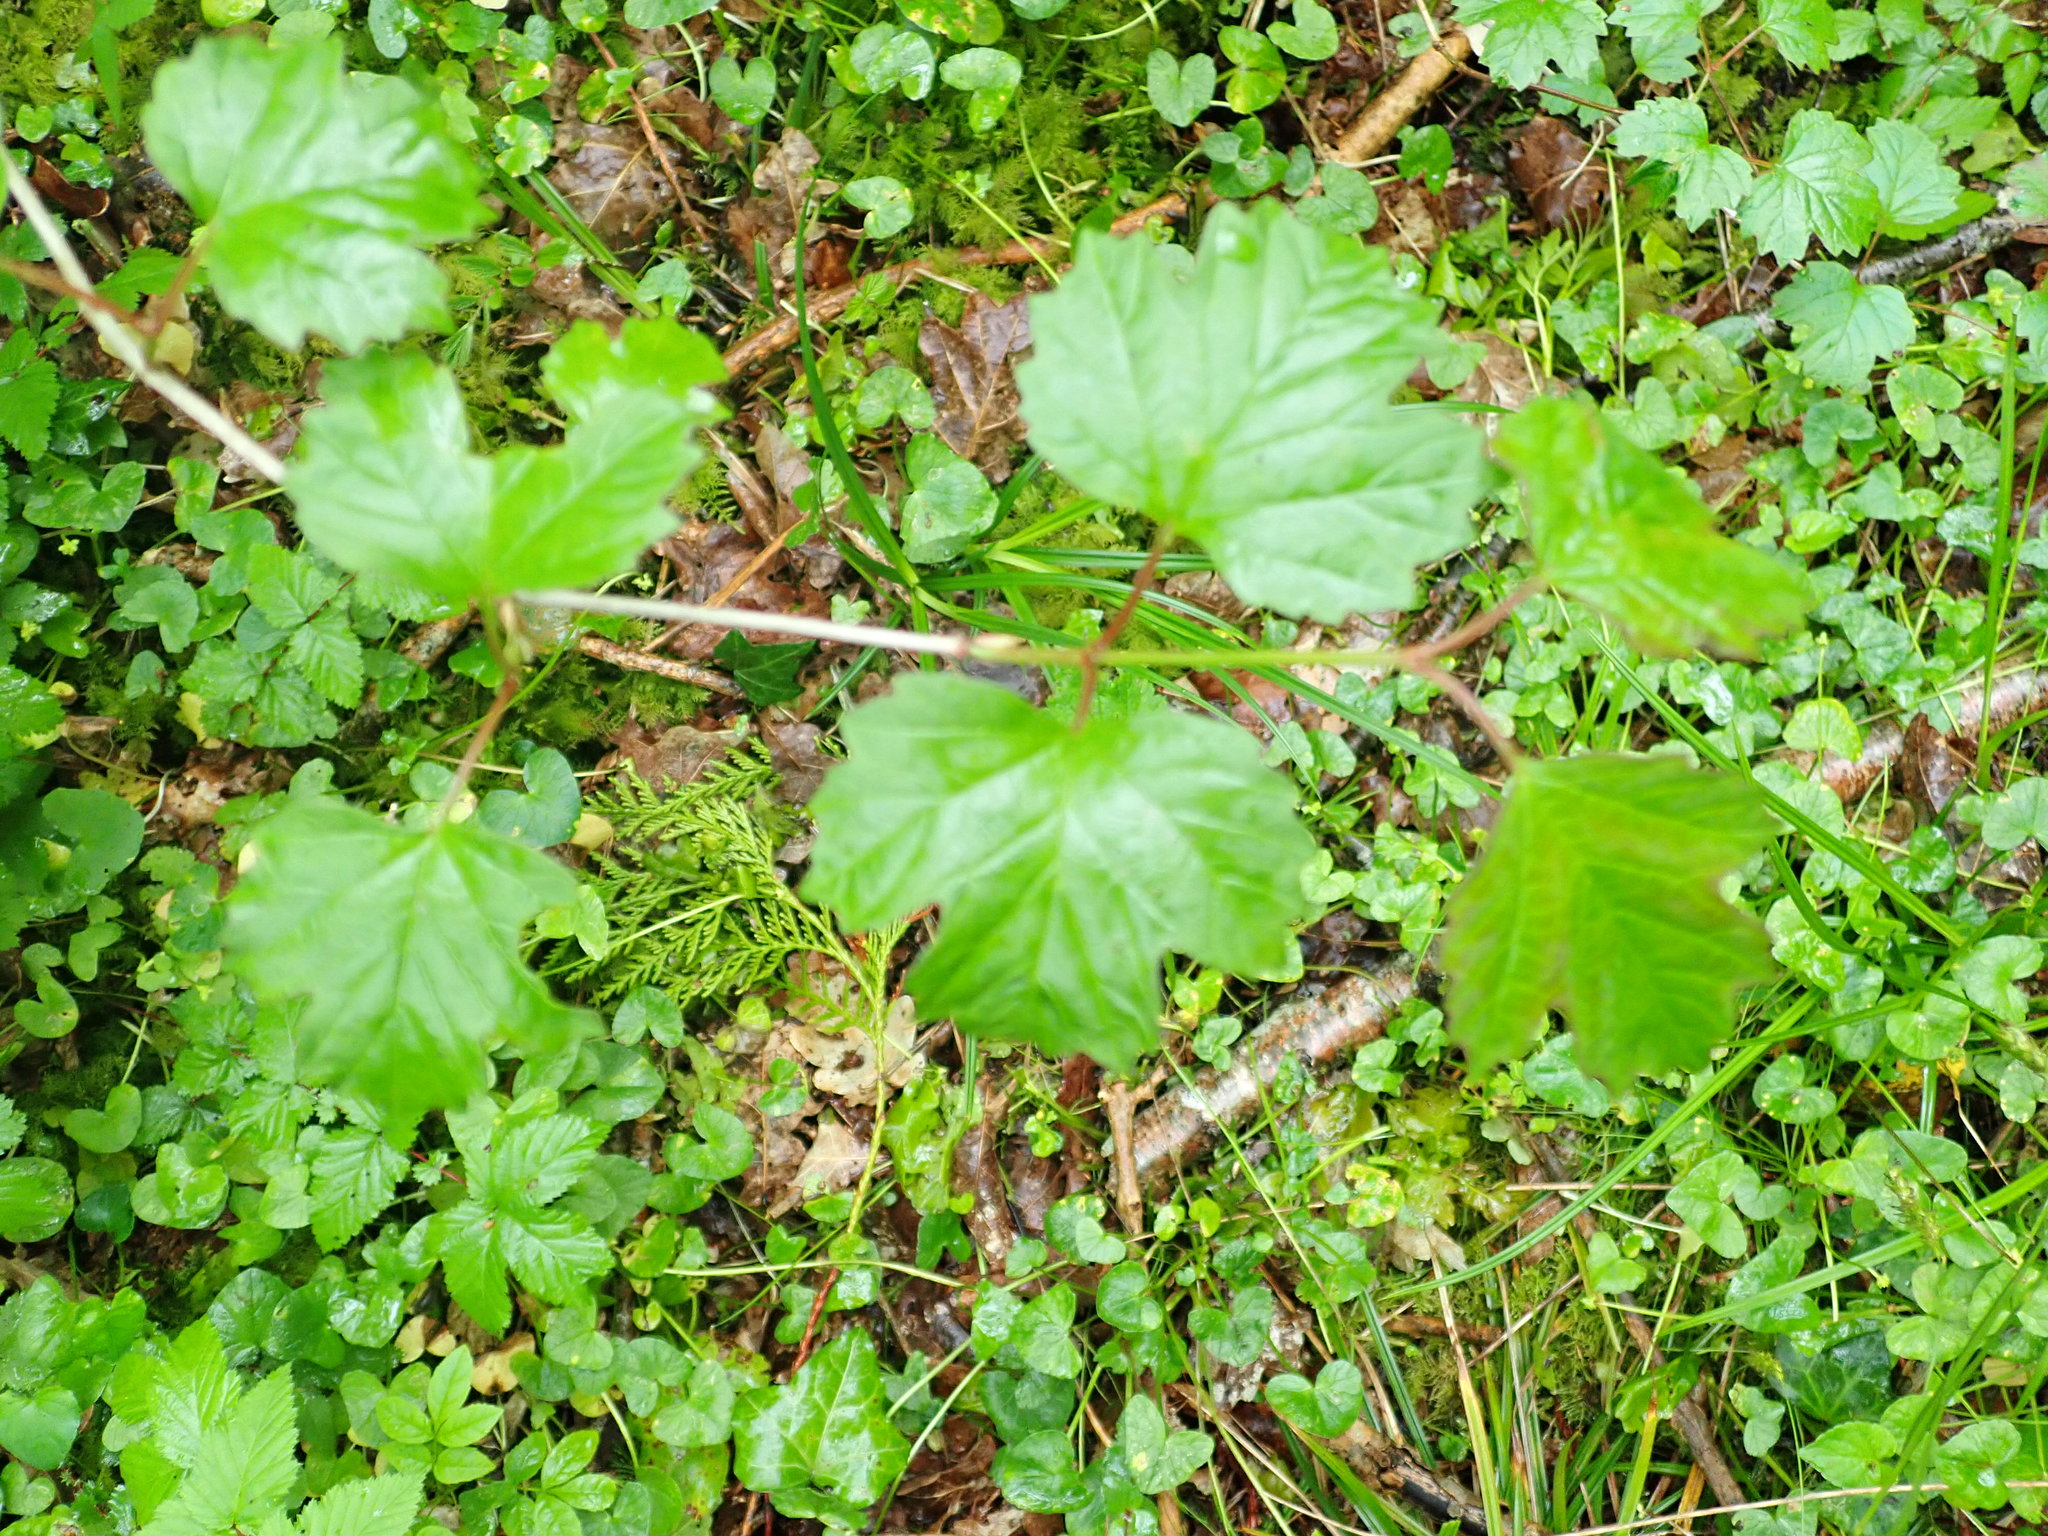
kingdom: Plantae
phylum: Tracheophyta
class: Magnoliopsida
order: Dipsacales
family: Viburnaceae
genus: Viburnum
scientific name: Viburnum opulus
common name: Guelder-rose
